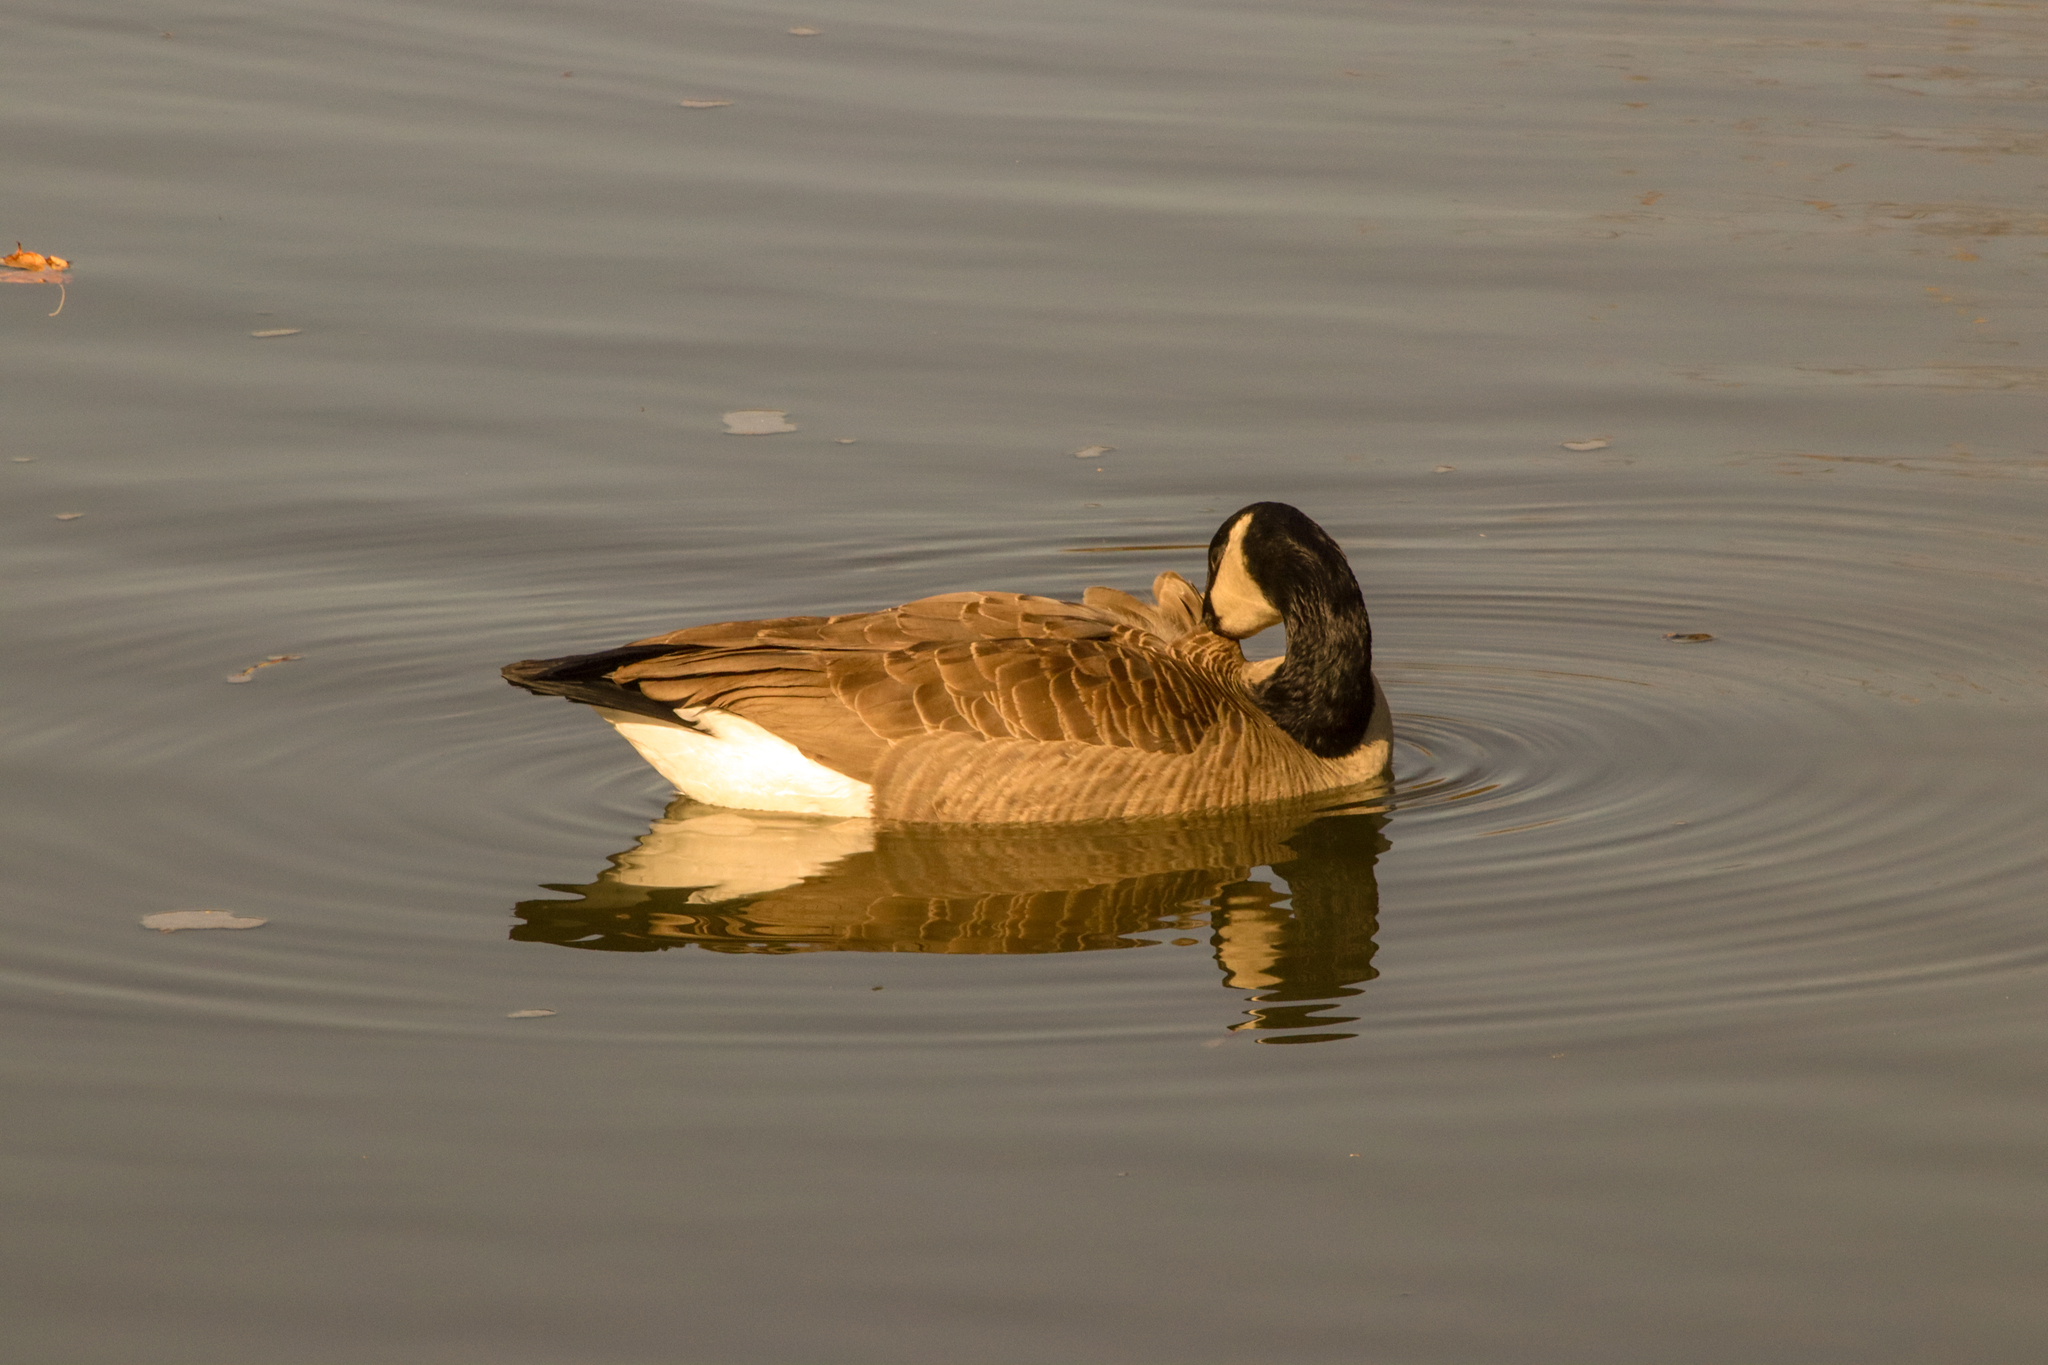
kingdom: Animalia
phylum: Chordata
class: Aves
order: Anseriformes
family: Anatidae
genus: Branta
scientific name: Branta canadensis
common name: Canada goose
